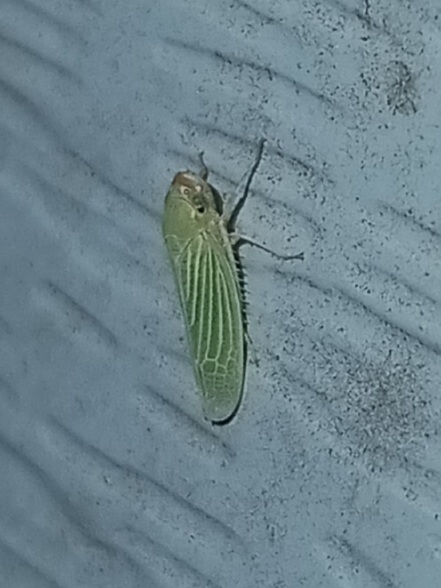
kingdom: Animalia
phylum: Arthropoda
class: Insecta
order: Hemiptera
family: Cicadellidae
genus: Xyphon
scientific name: Xyphon flaviceps
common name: Yellowheaded leafhopper
